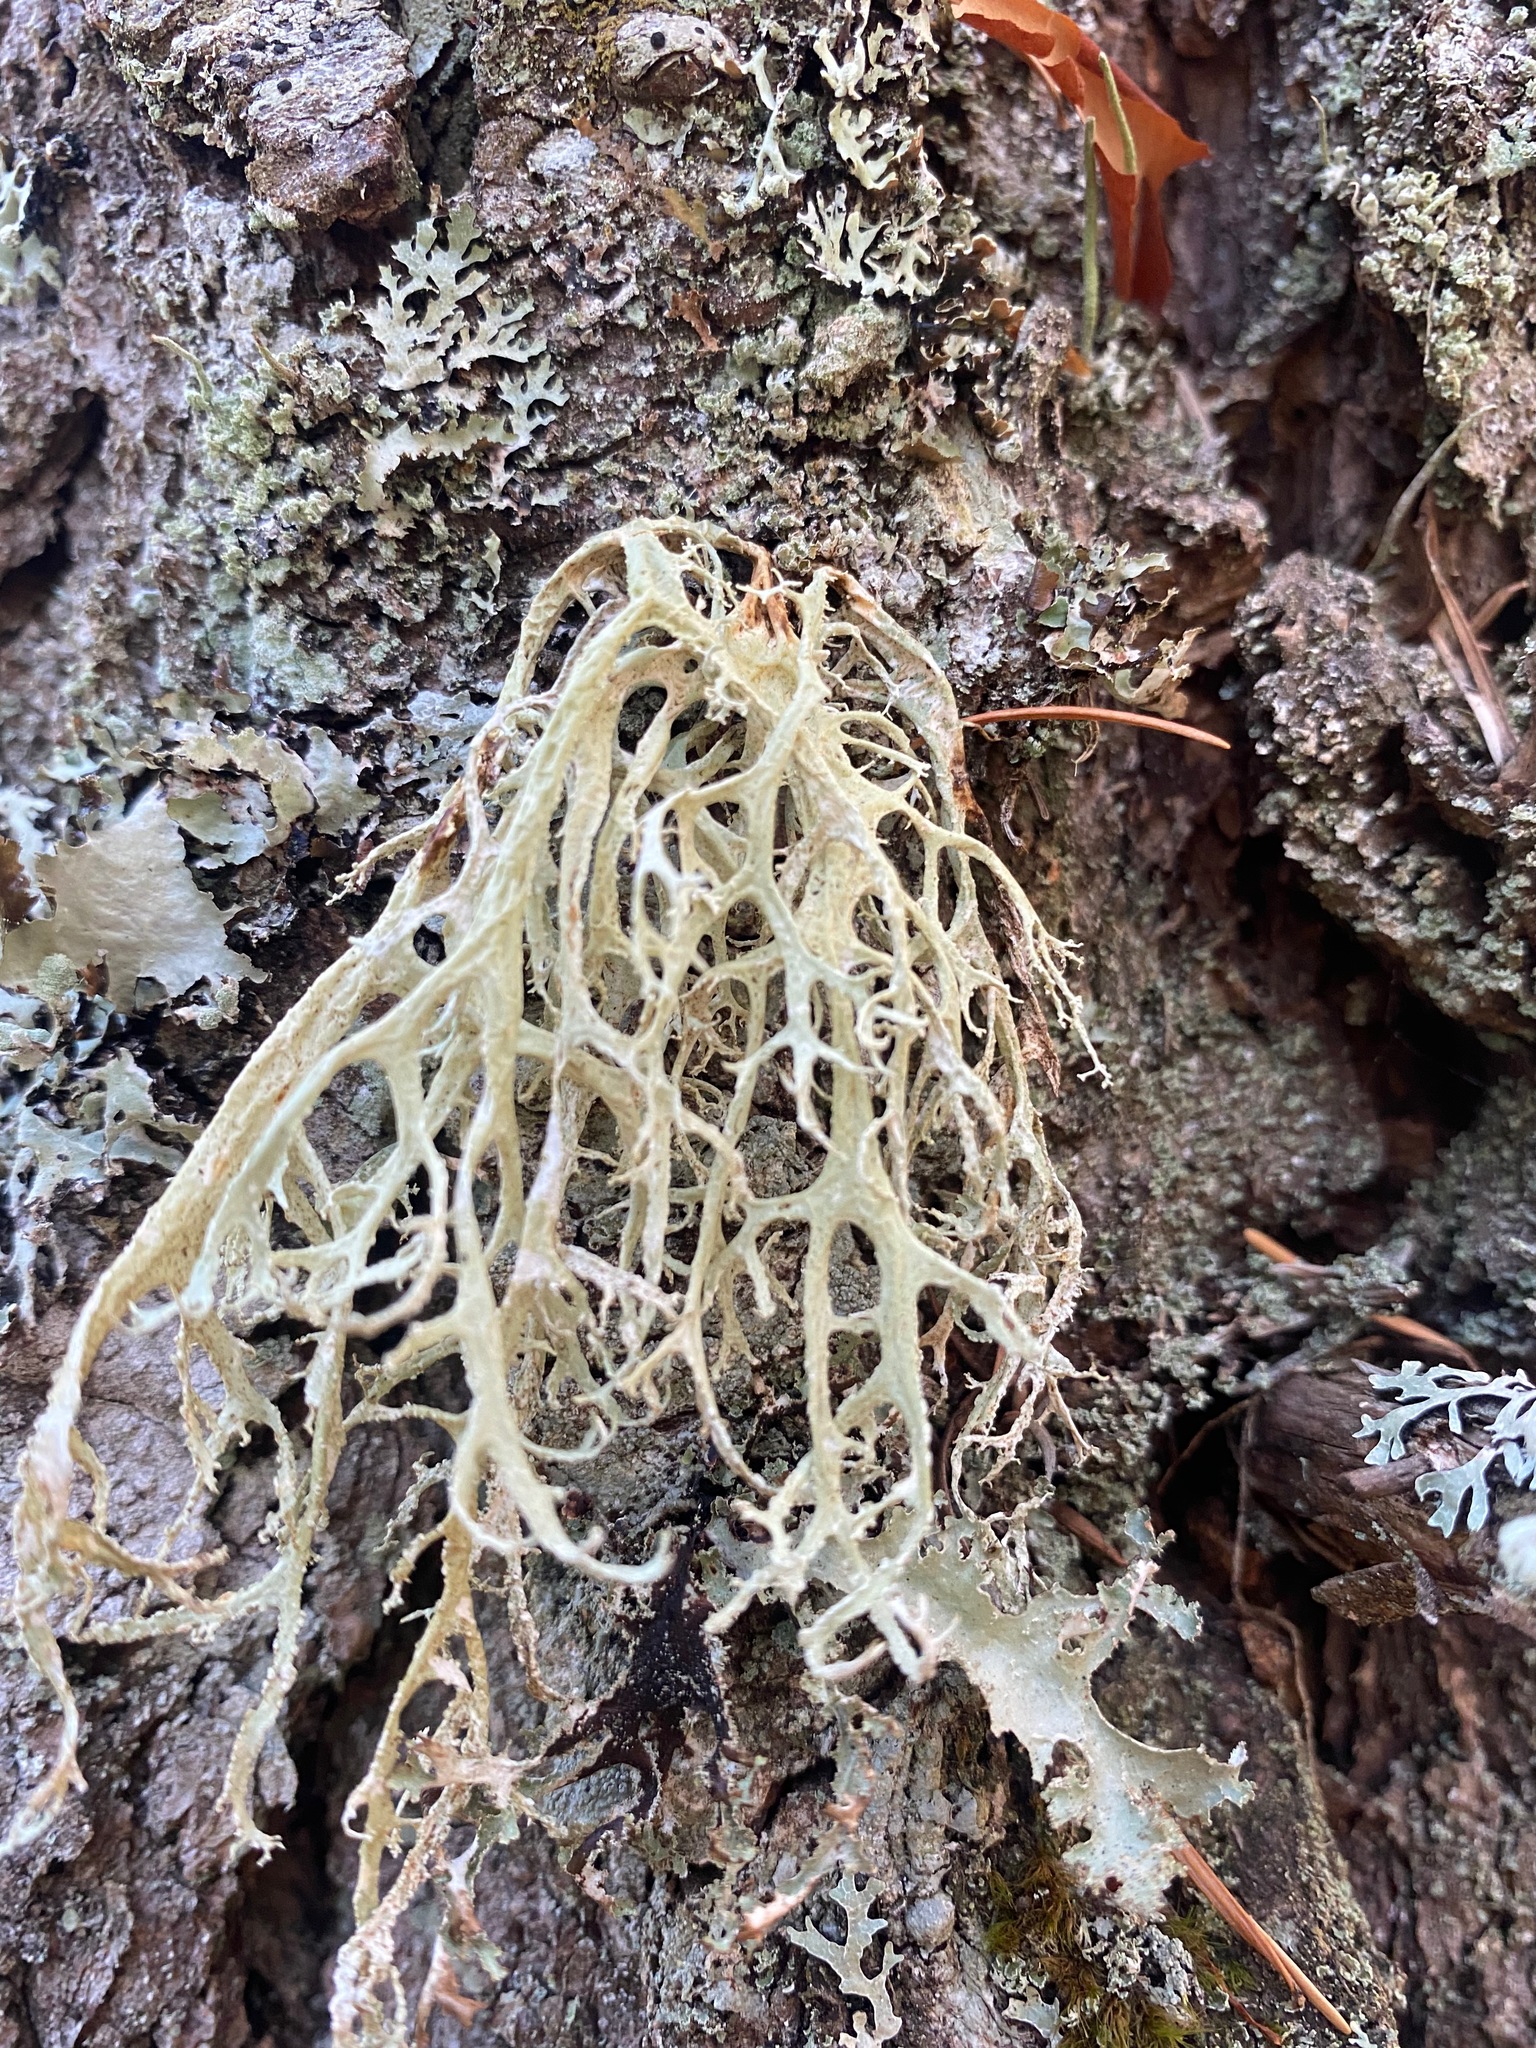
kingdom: Fungi
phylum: Ascomycota
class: Lecanoromycetes
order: Lecanorales
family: Parmeliaceae
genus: Evernia
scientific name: Evernia prunastri
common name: Oak moss
